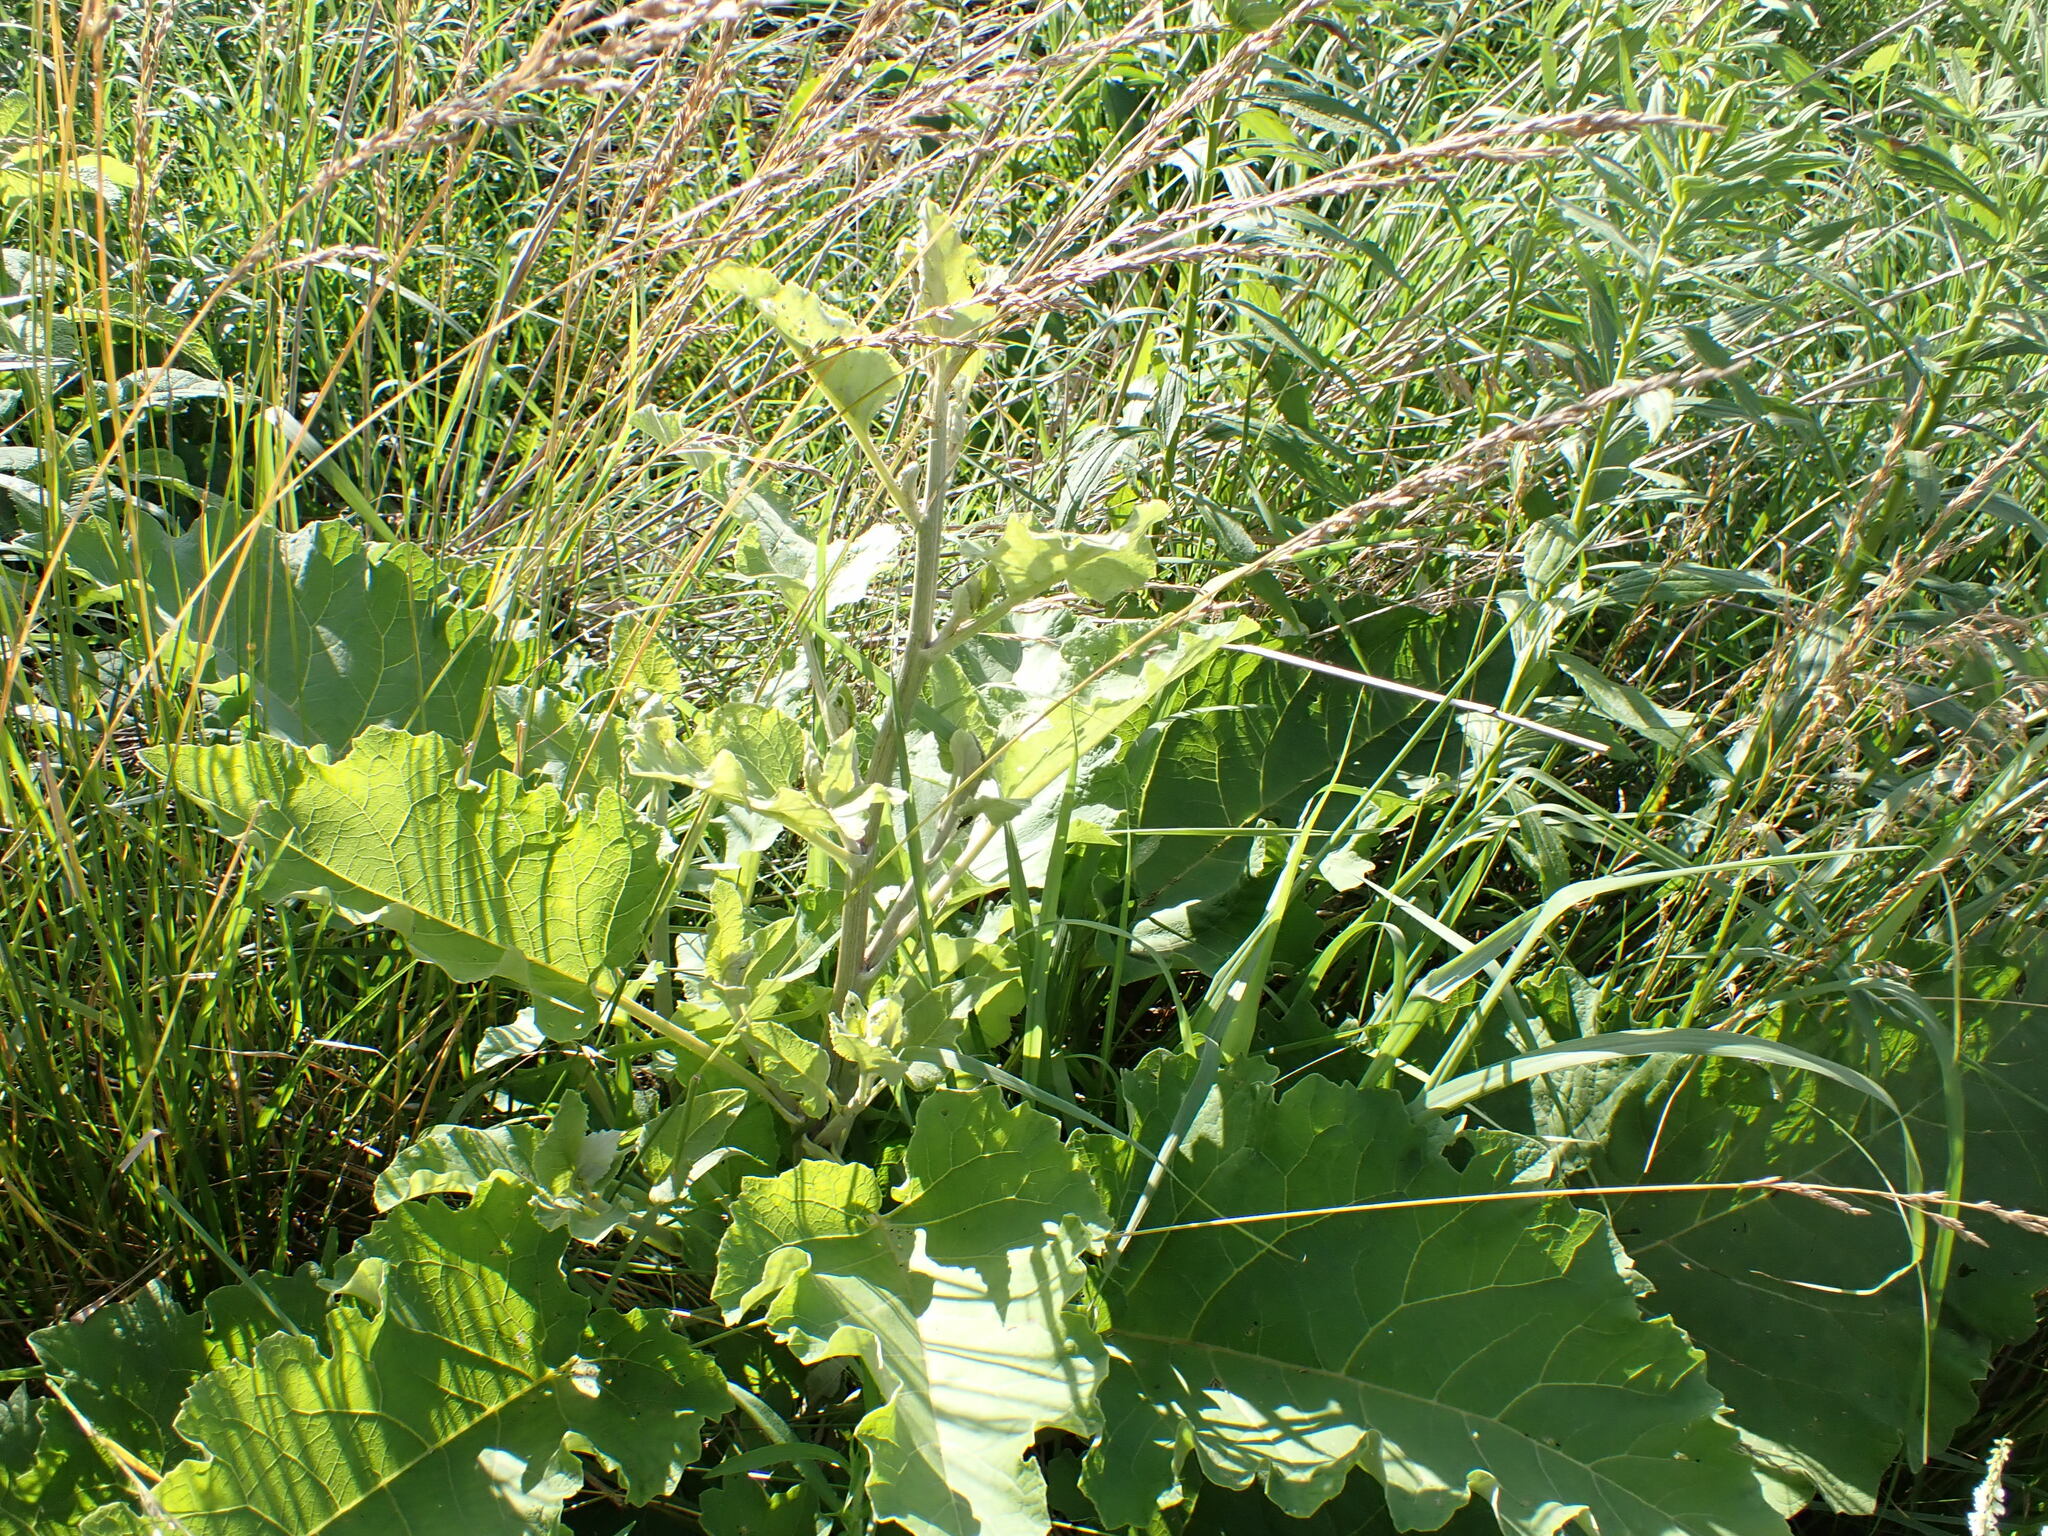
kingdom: Plantae
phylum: Tracheophyta
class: Magnoliopsida
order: Asterales
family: Asteraceae
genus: Arctium
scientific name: Arctium
